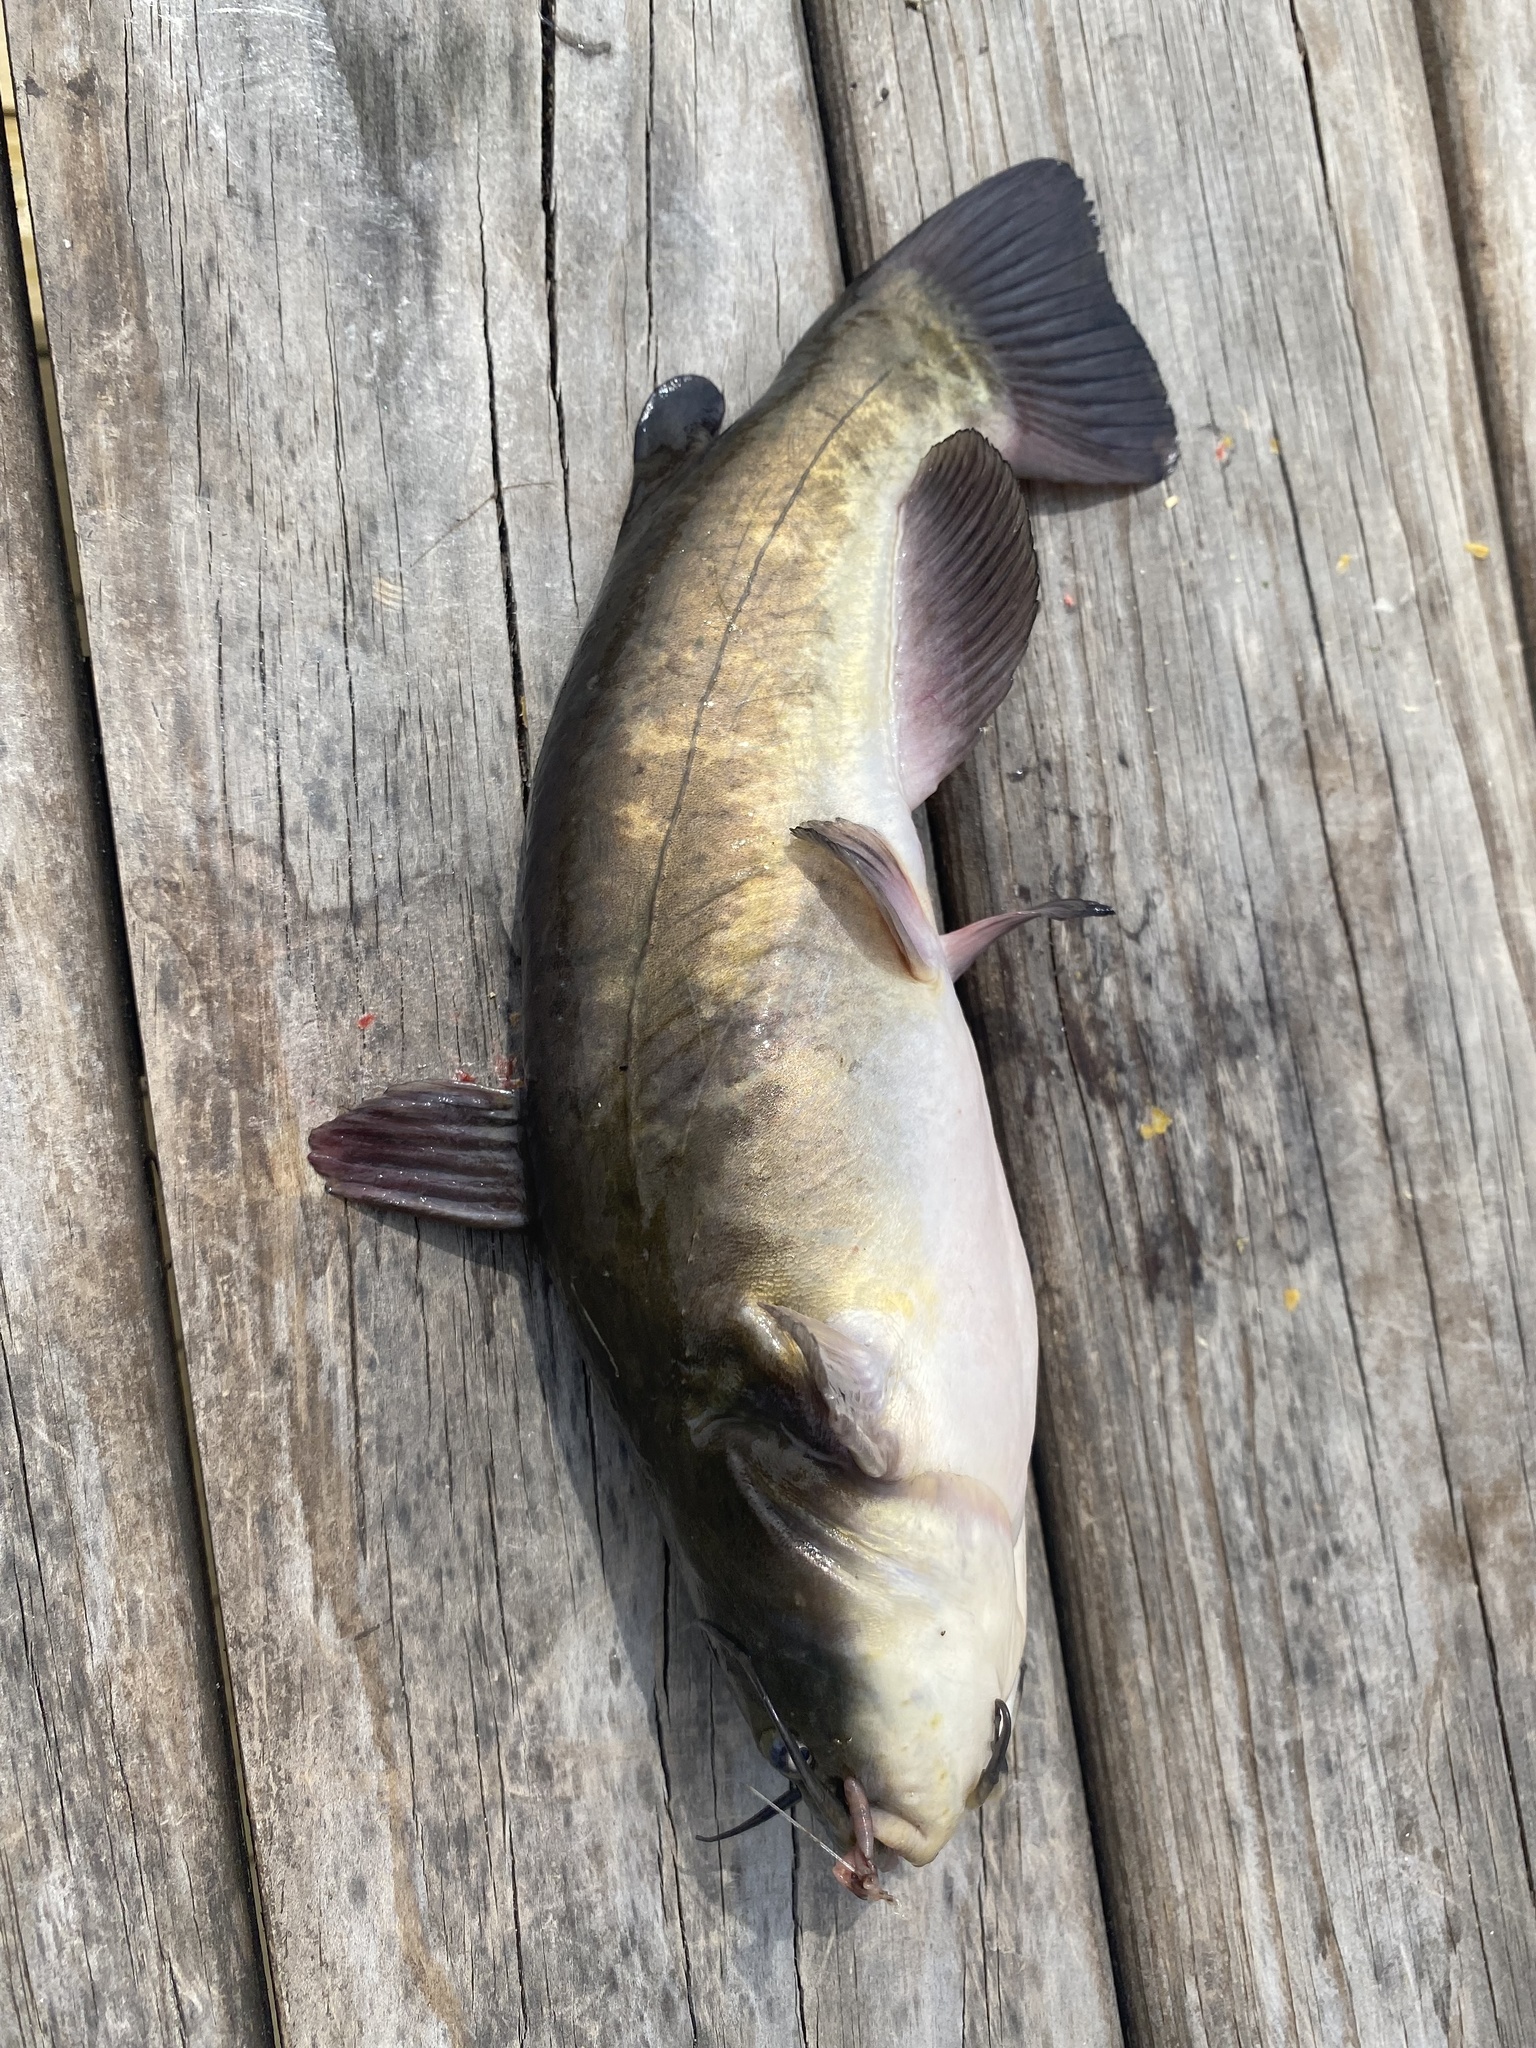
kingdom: Animalia
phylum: Chordata
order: Siluriformes
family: Ictaluridae
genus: Ameiurus
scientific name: Ameiurus nebulosus
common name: Brown bullhead
